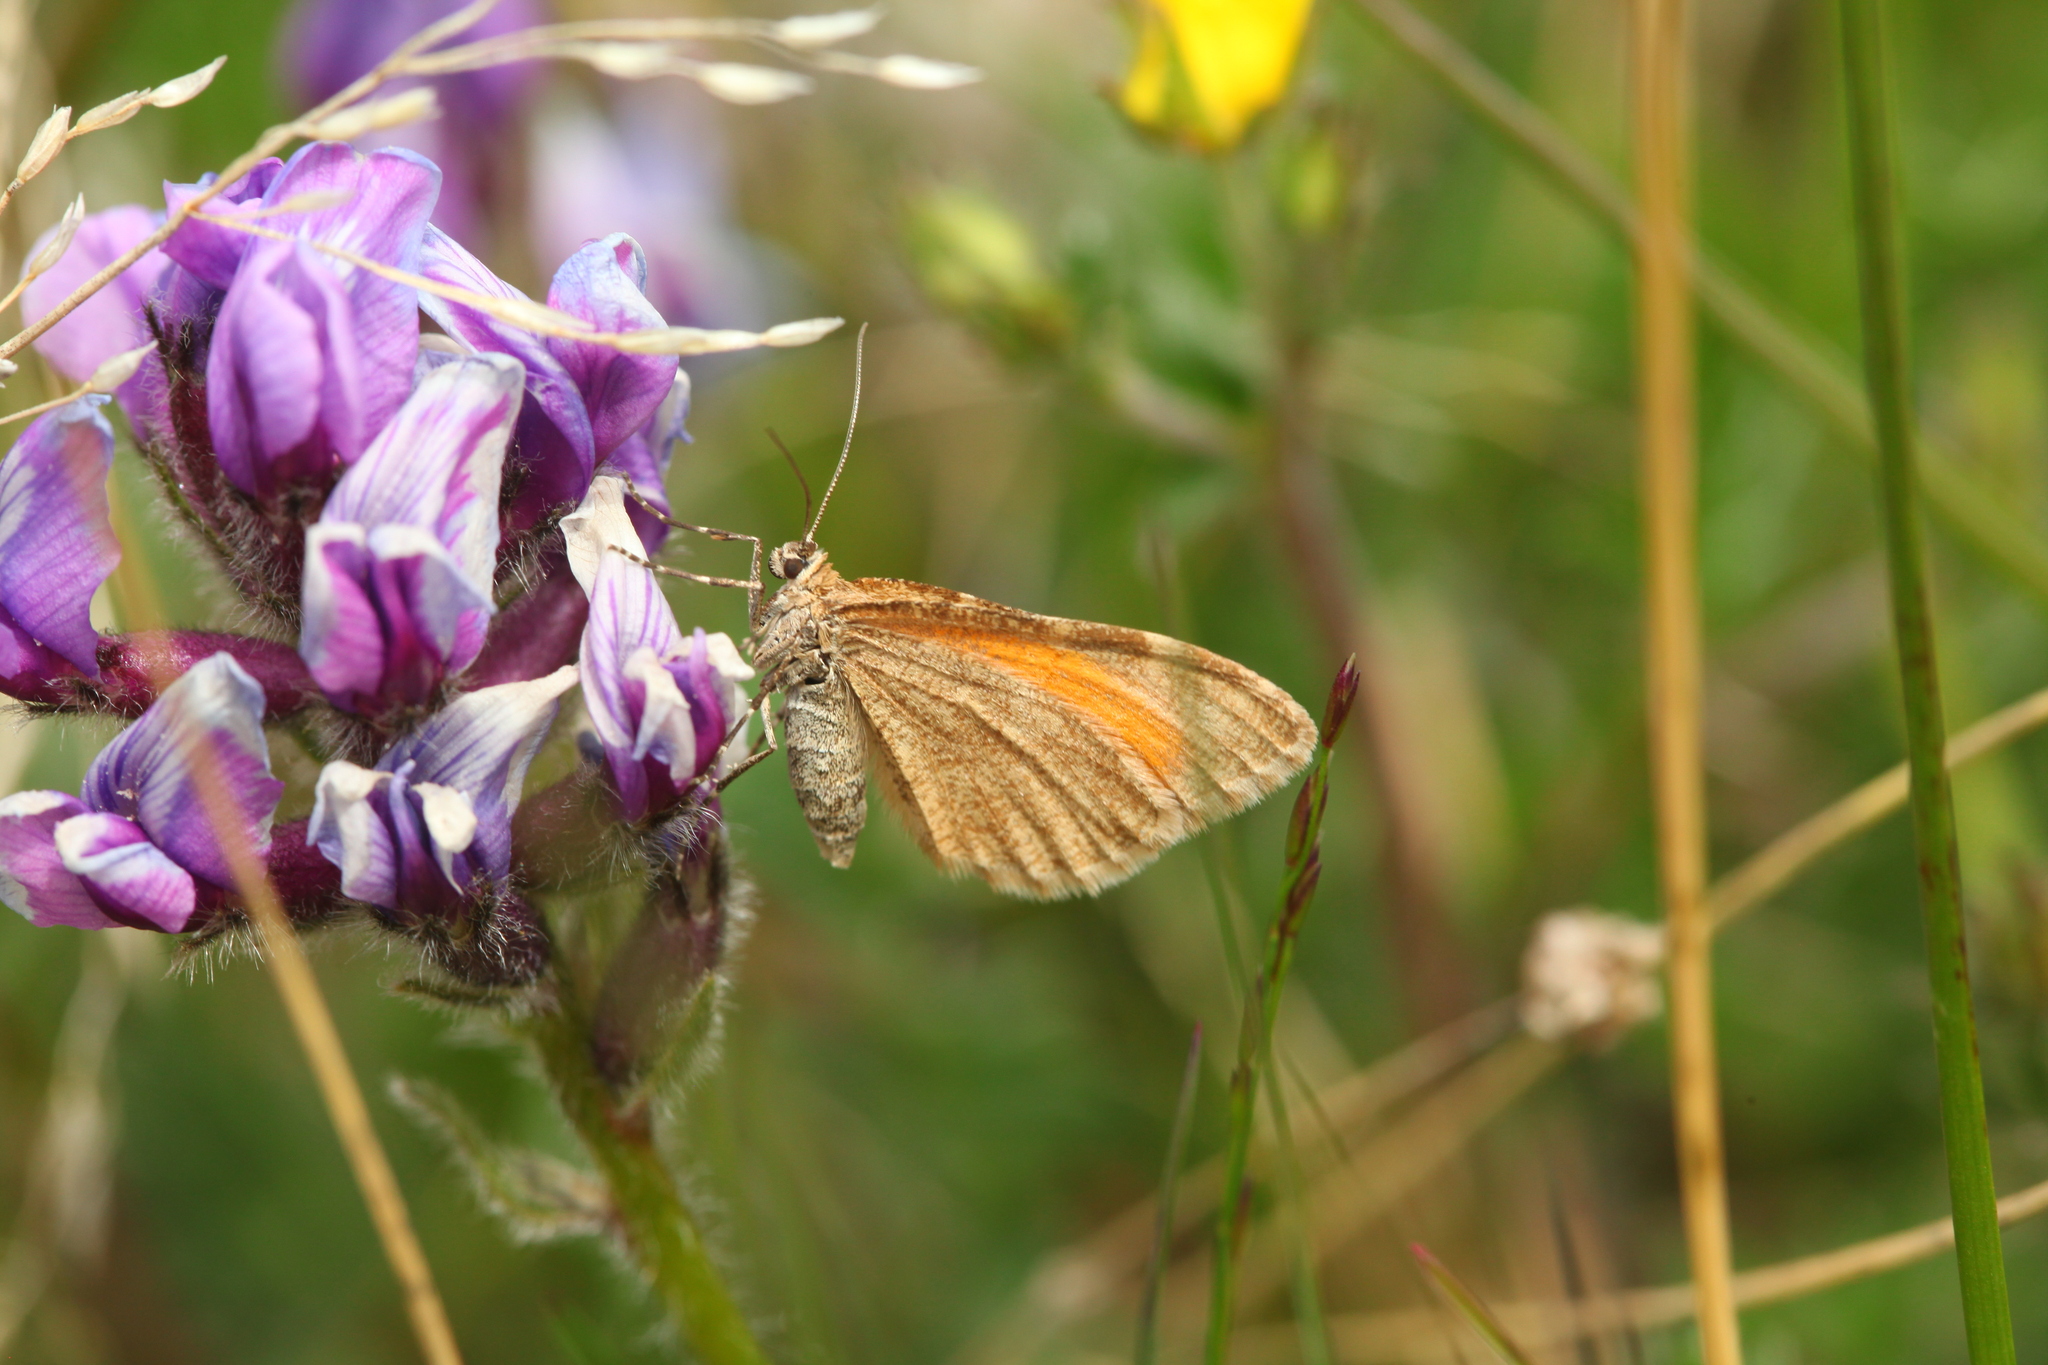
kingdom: Animalia
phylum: Arthropoda
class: Insecta
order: Lepidoptera
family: Geometridae
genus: Stamnodes
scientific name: Stamnodes pauperaria
